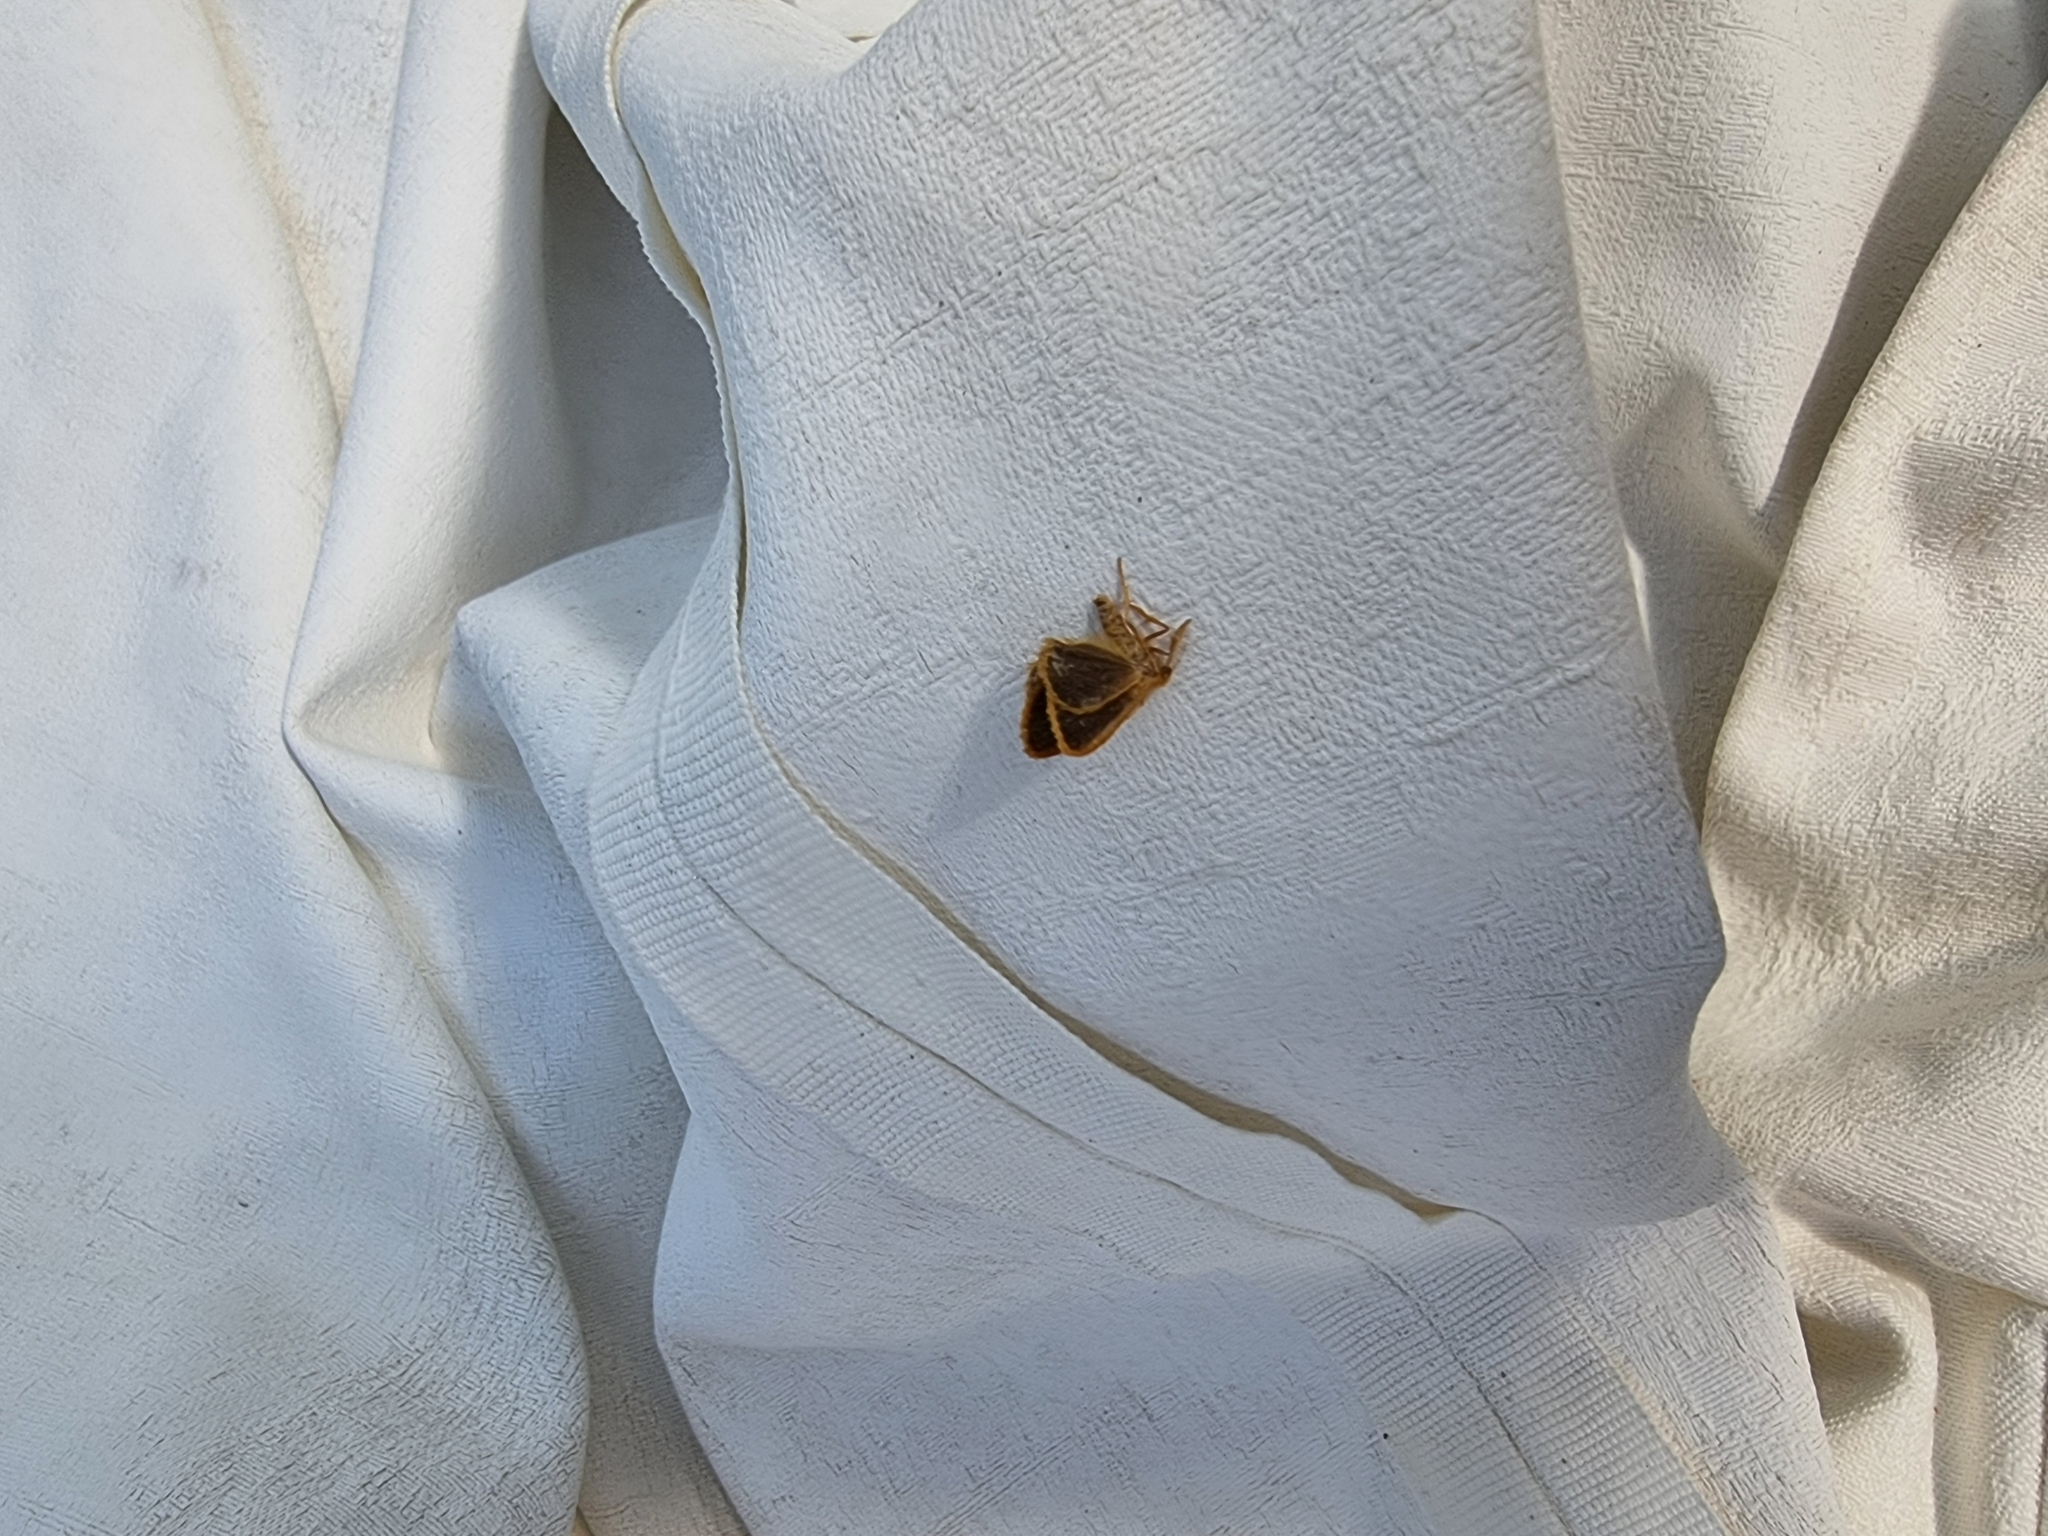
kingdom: Animalia
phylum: Arthropoda
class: Insecta
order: Lepidoptera
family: Erebidae
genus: Euproctis
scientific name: Euproctis lucifuga
